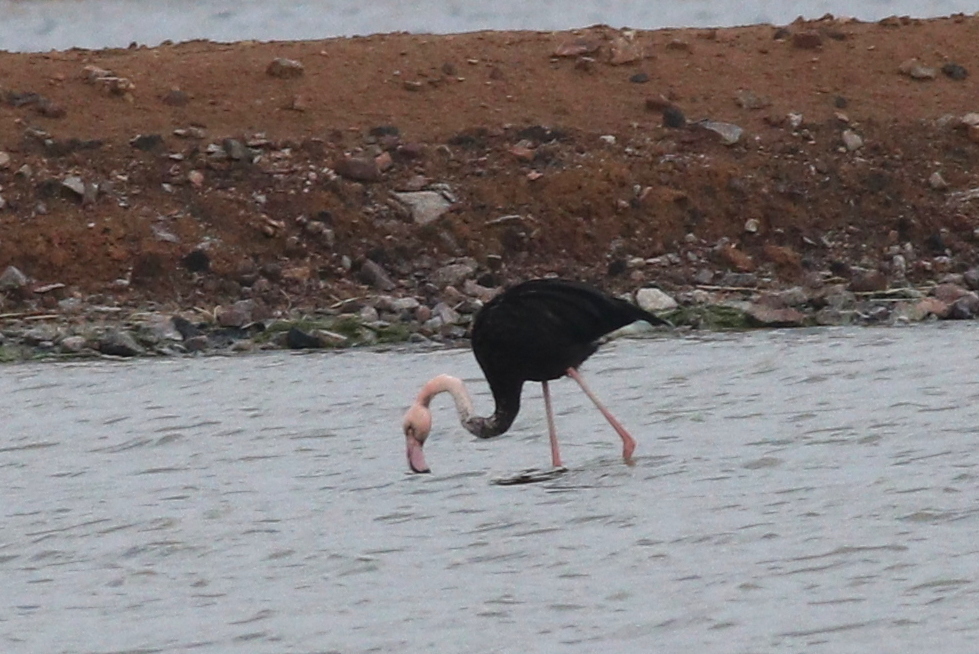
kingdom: Animalia
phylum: Chordata
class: Aves
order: Phoenicopteriformes
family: Phoenicopteridae
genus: Phoenicopterus
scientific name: Phoenicopterus roseus
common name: Greater flamingo
